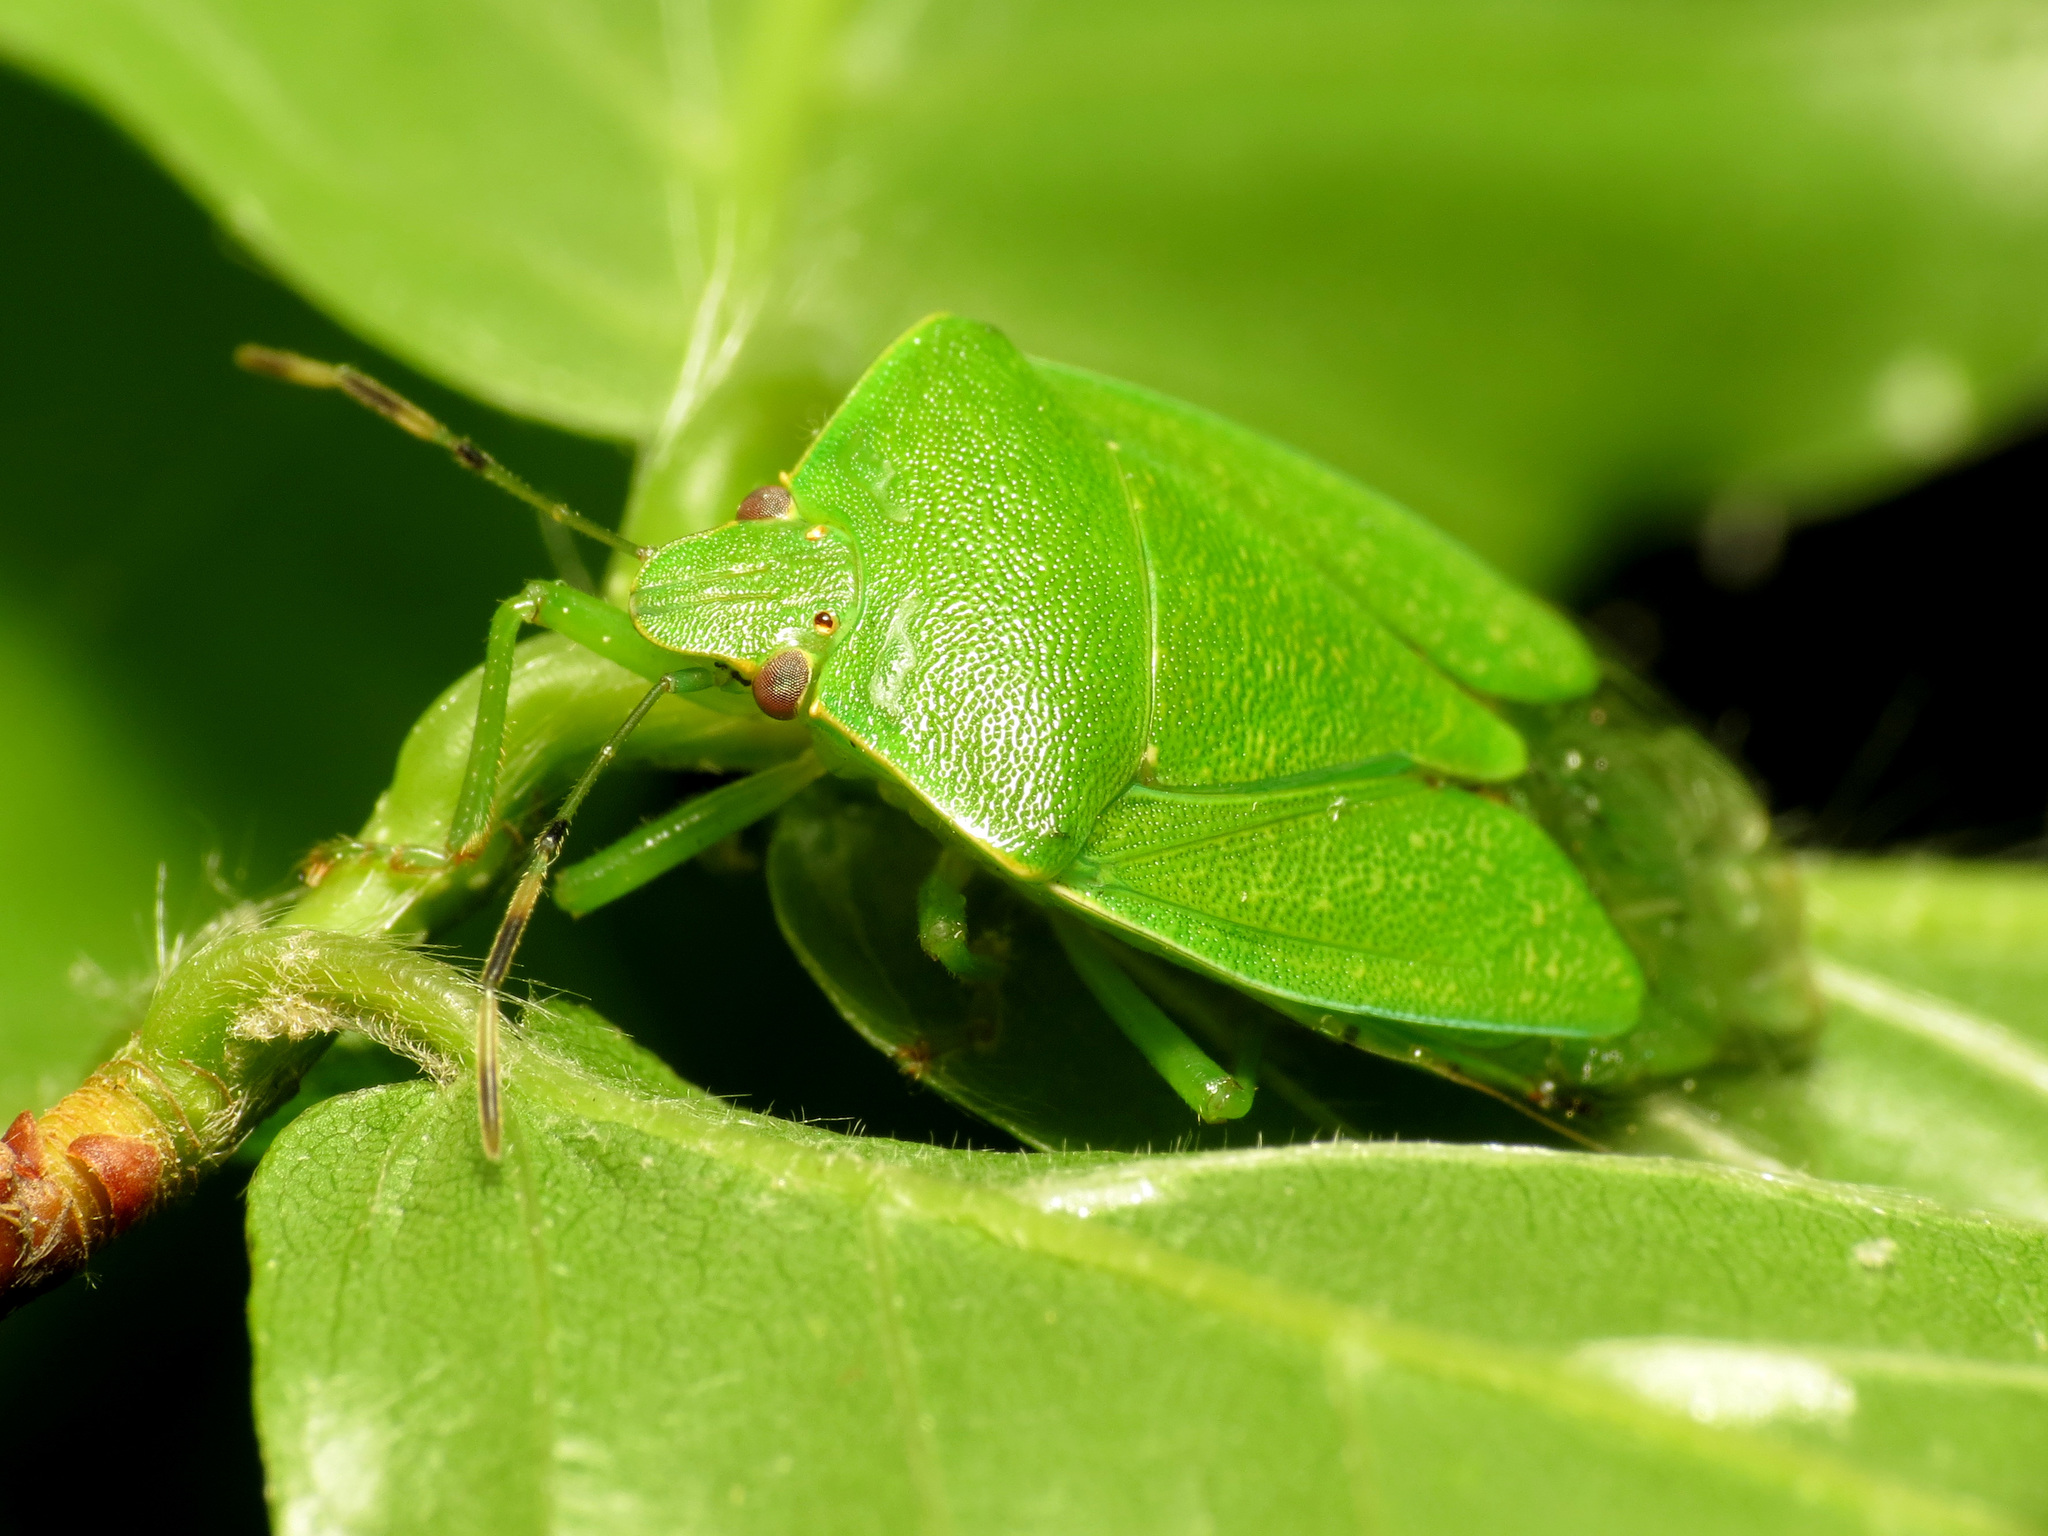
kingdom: Animalia
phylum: Arthropoda
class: Insecta
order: Hemiptera
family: Pentatomidae
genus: Chinavia
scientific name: Chinavia hilaris
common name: Green stink bug
